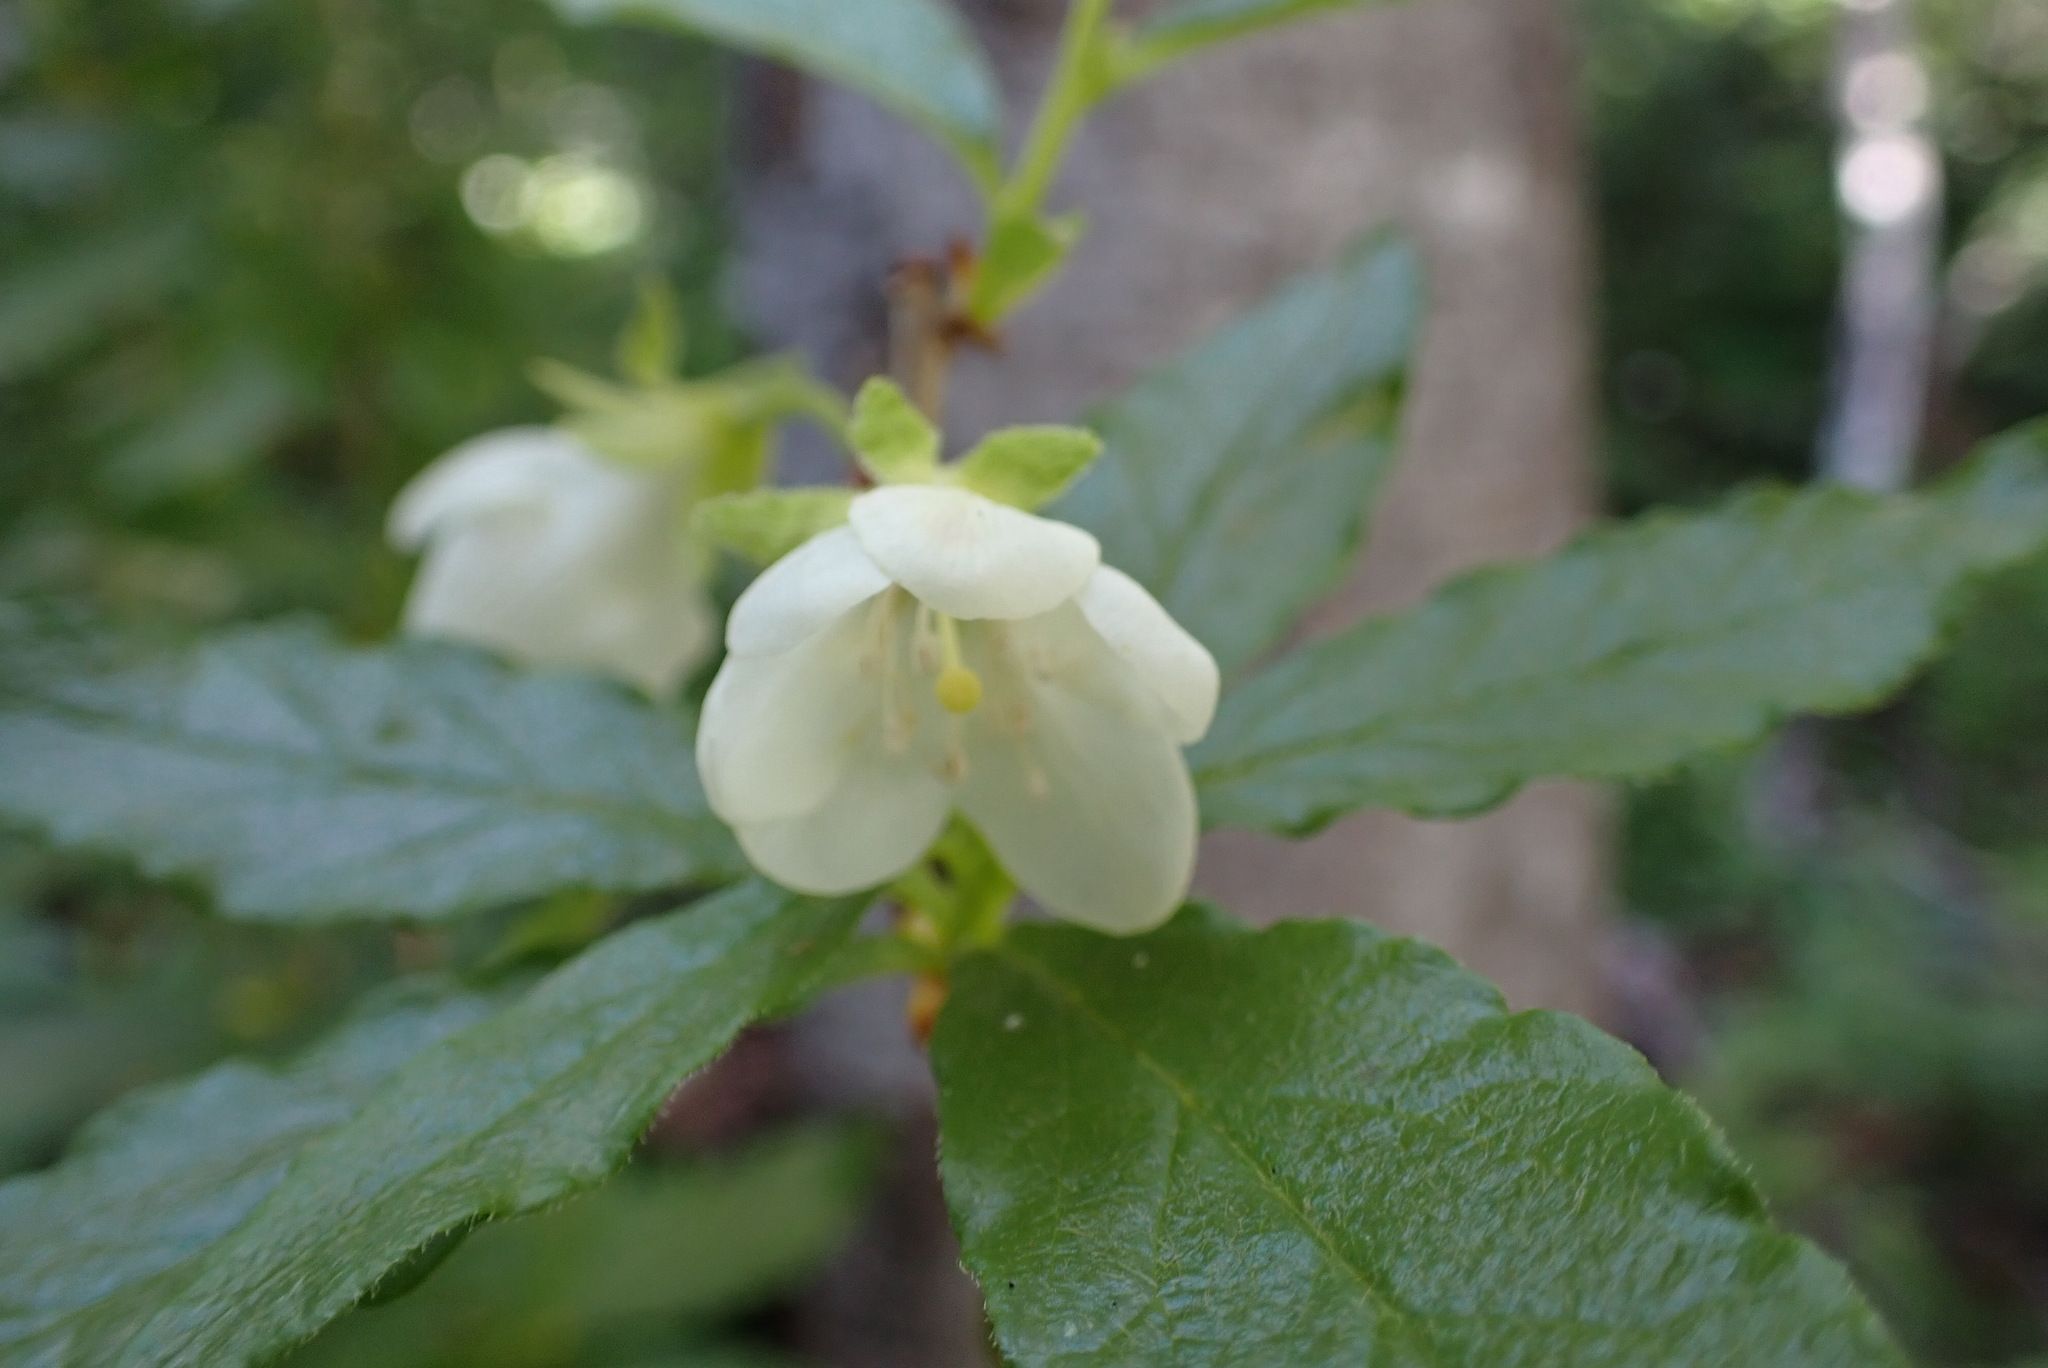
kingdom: Plantae
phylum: Tracheophyta
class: Magnoliopsida
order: Ericales
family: Ericaceae
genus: Rhododendron
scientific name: Rhododendron albiflorum
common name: White rhododendron
